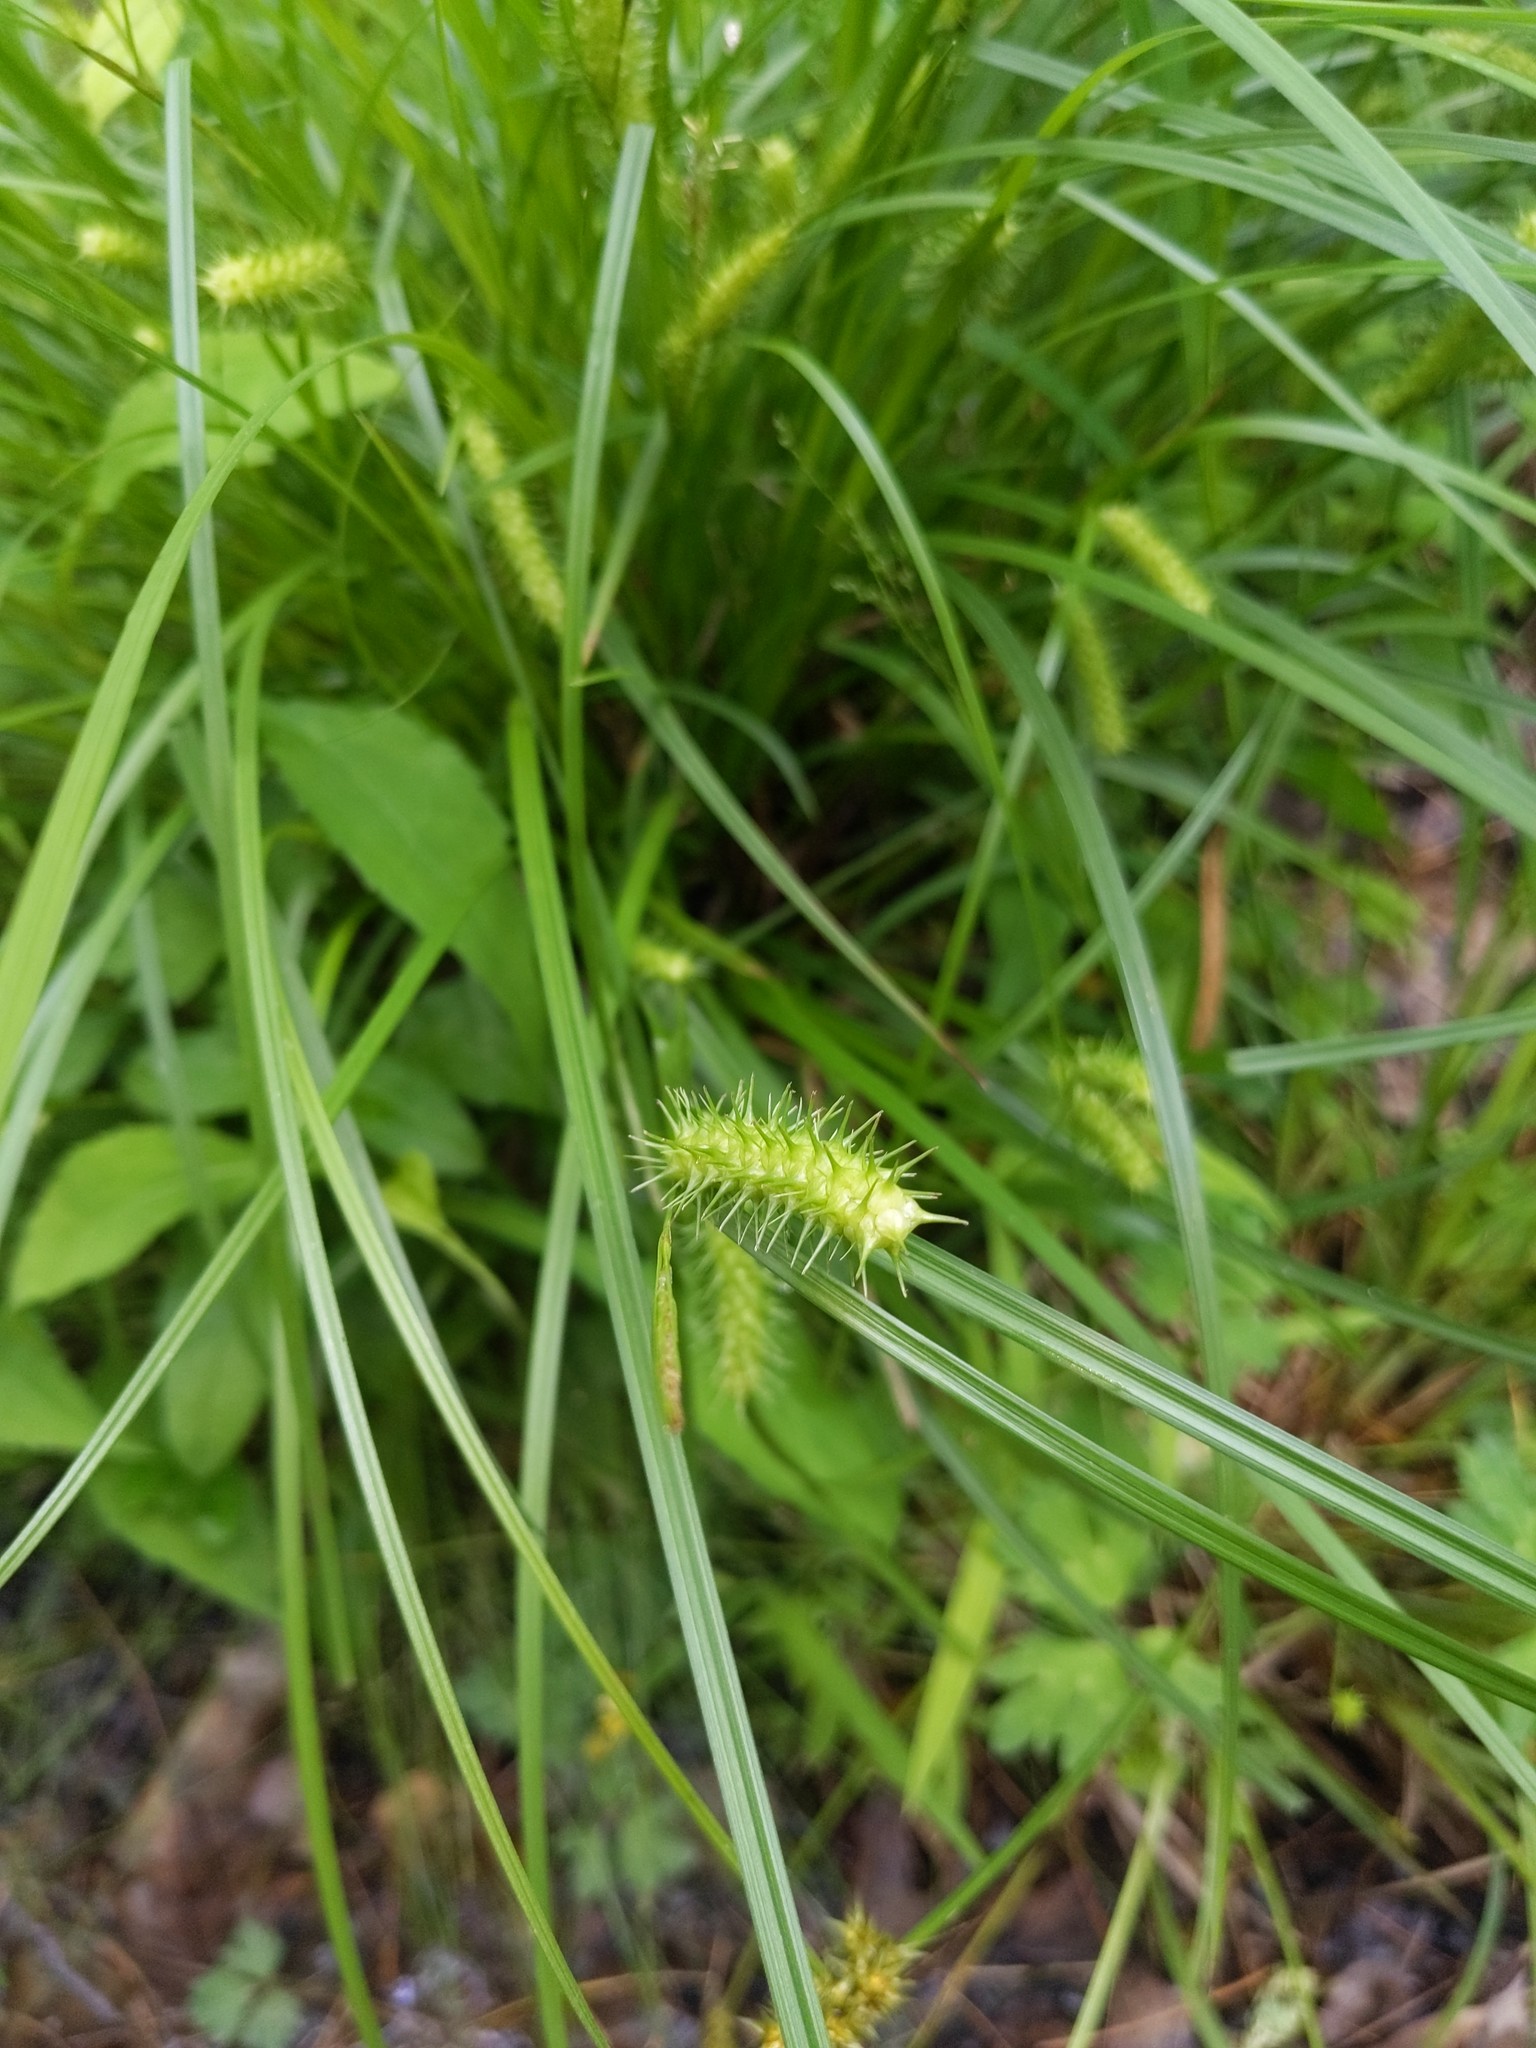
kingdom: Plantae
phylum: Tracheophyta
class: Liliopsida
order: Poales
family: Cyperaceae
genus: Carex
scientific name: Carex baileyi
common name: Bailey's sedge
